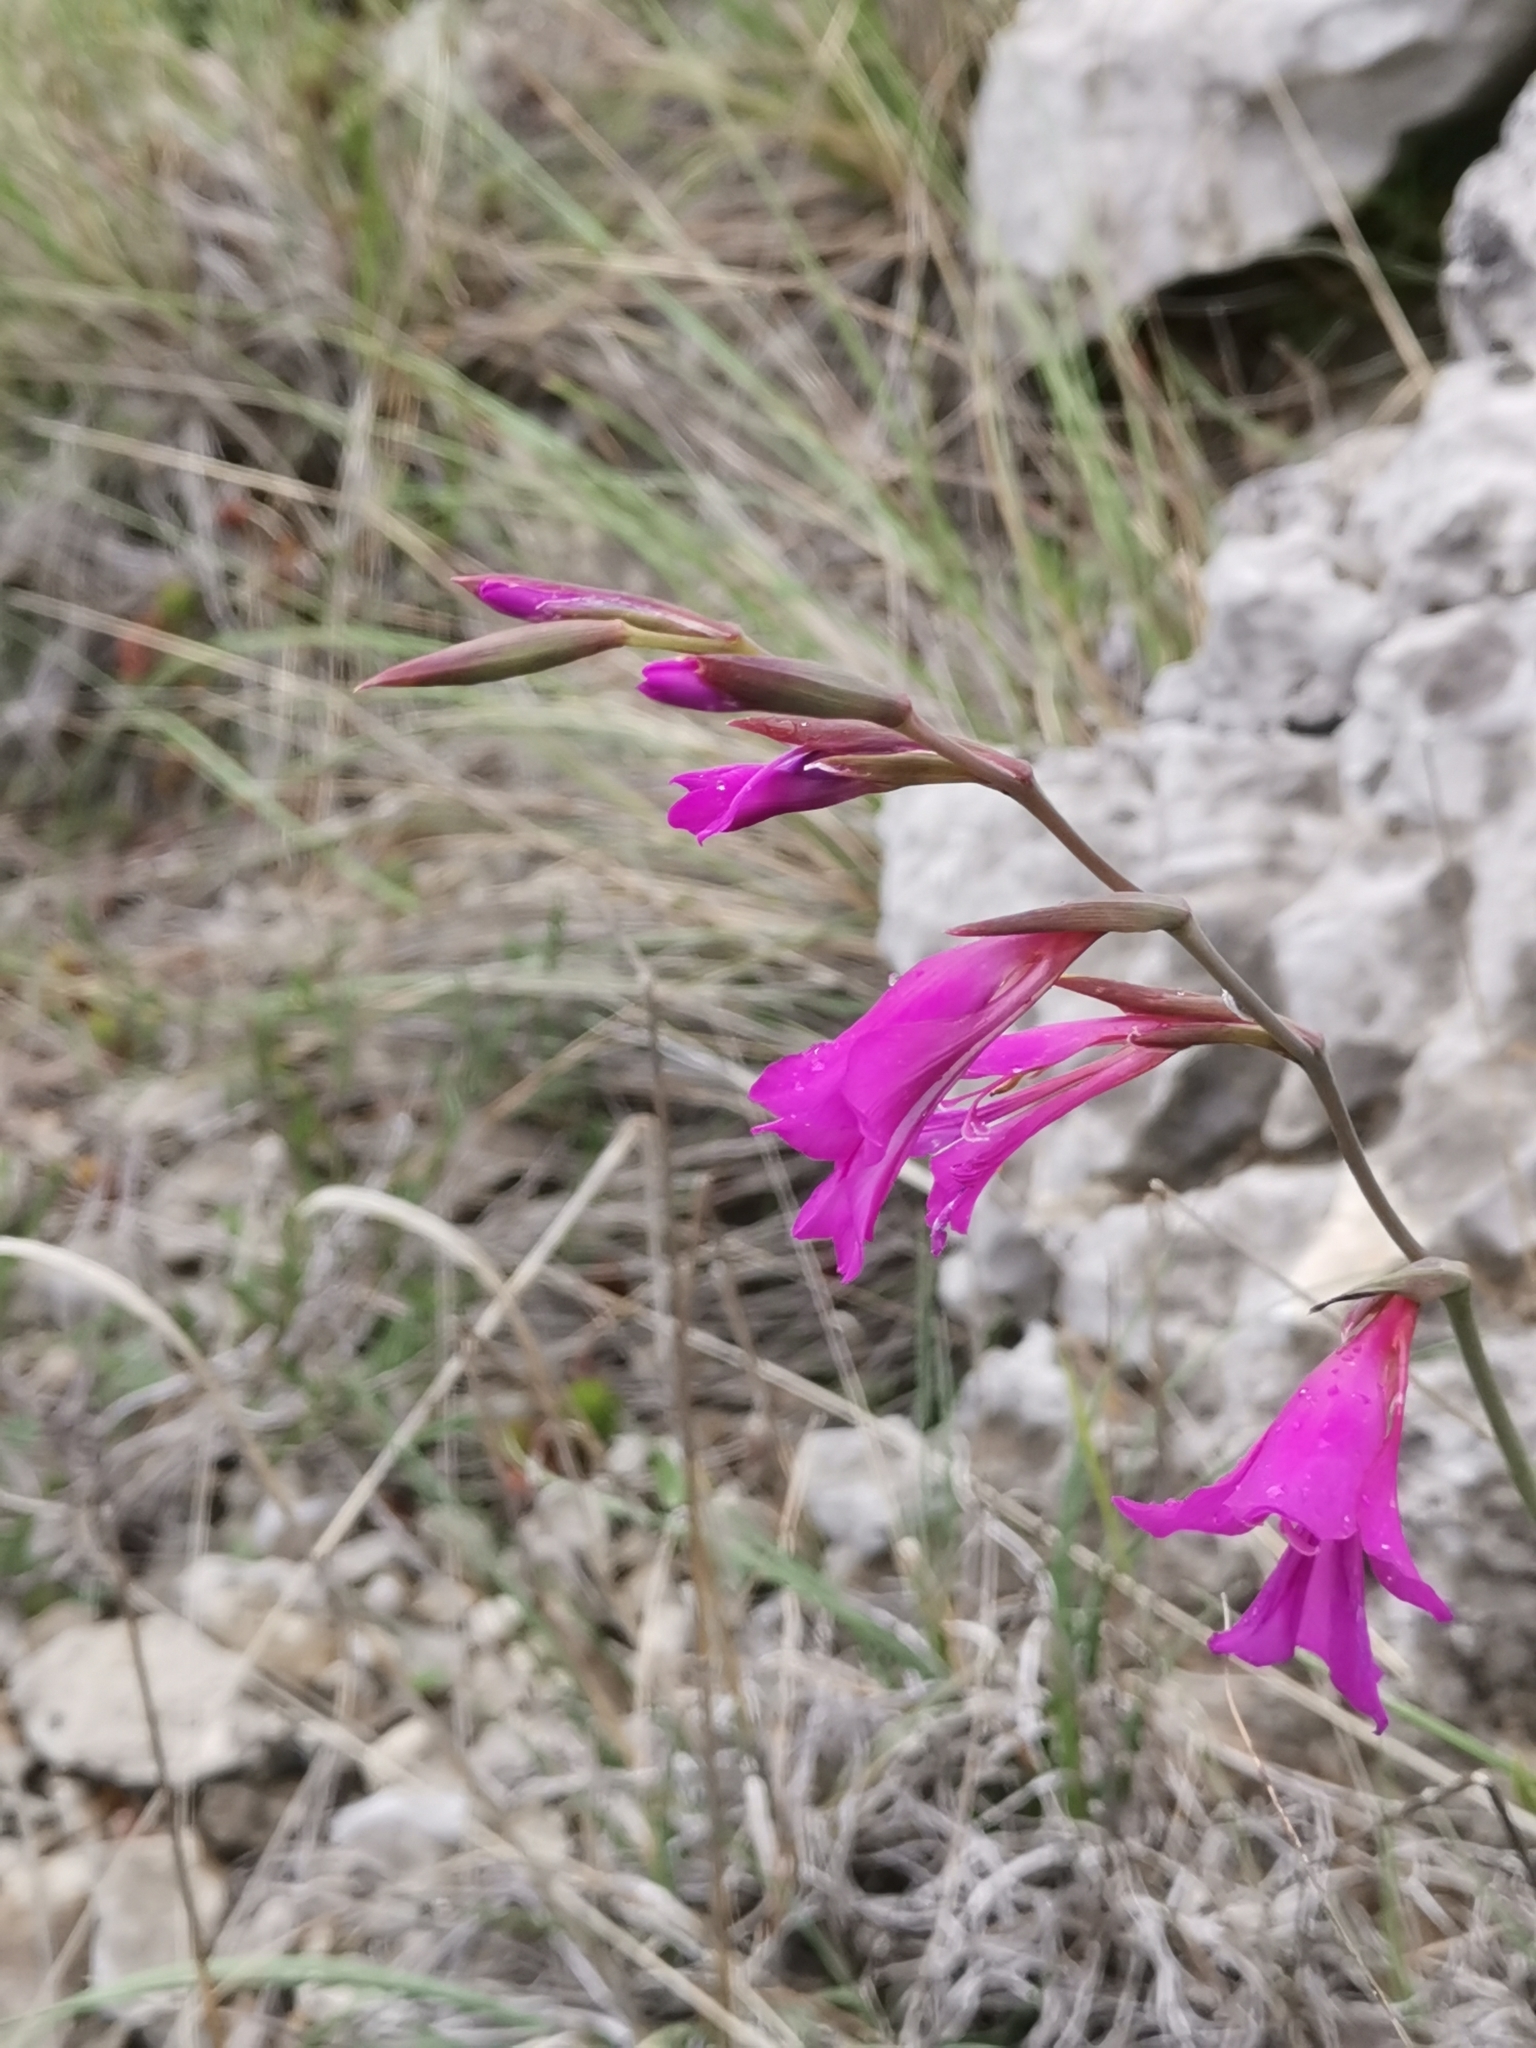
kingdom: Plantae
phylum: Tracheophyta
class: Liliopsida
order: Asparagales
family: Iridaceae
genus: Gladiolus
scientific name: Gladiolus illyricus
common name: Wild gladiolus
